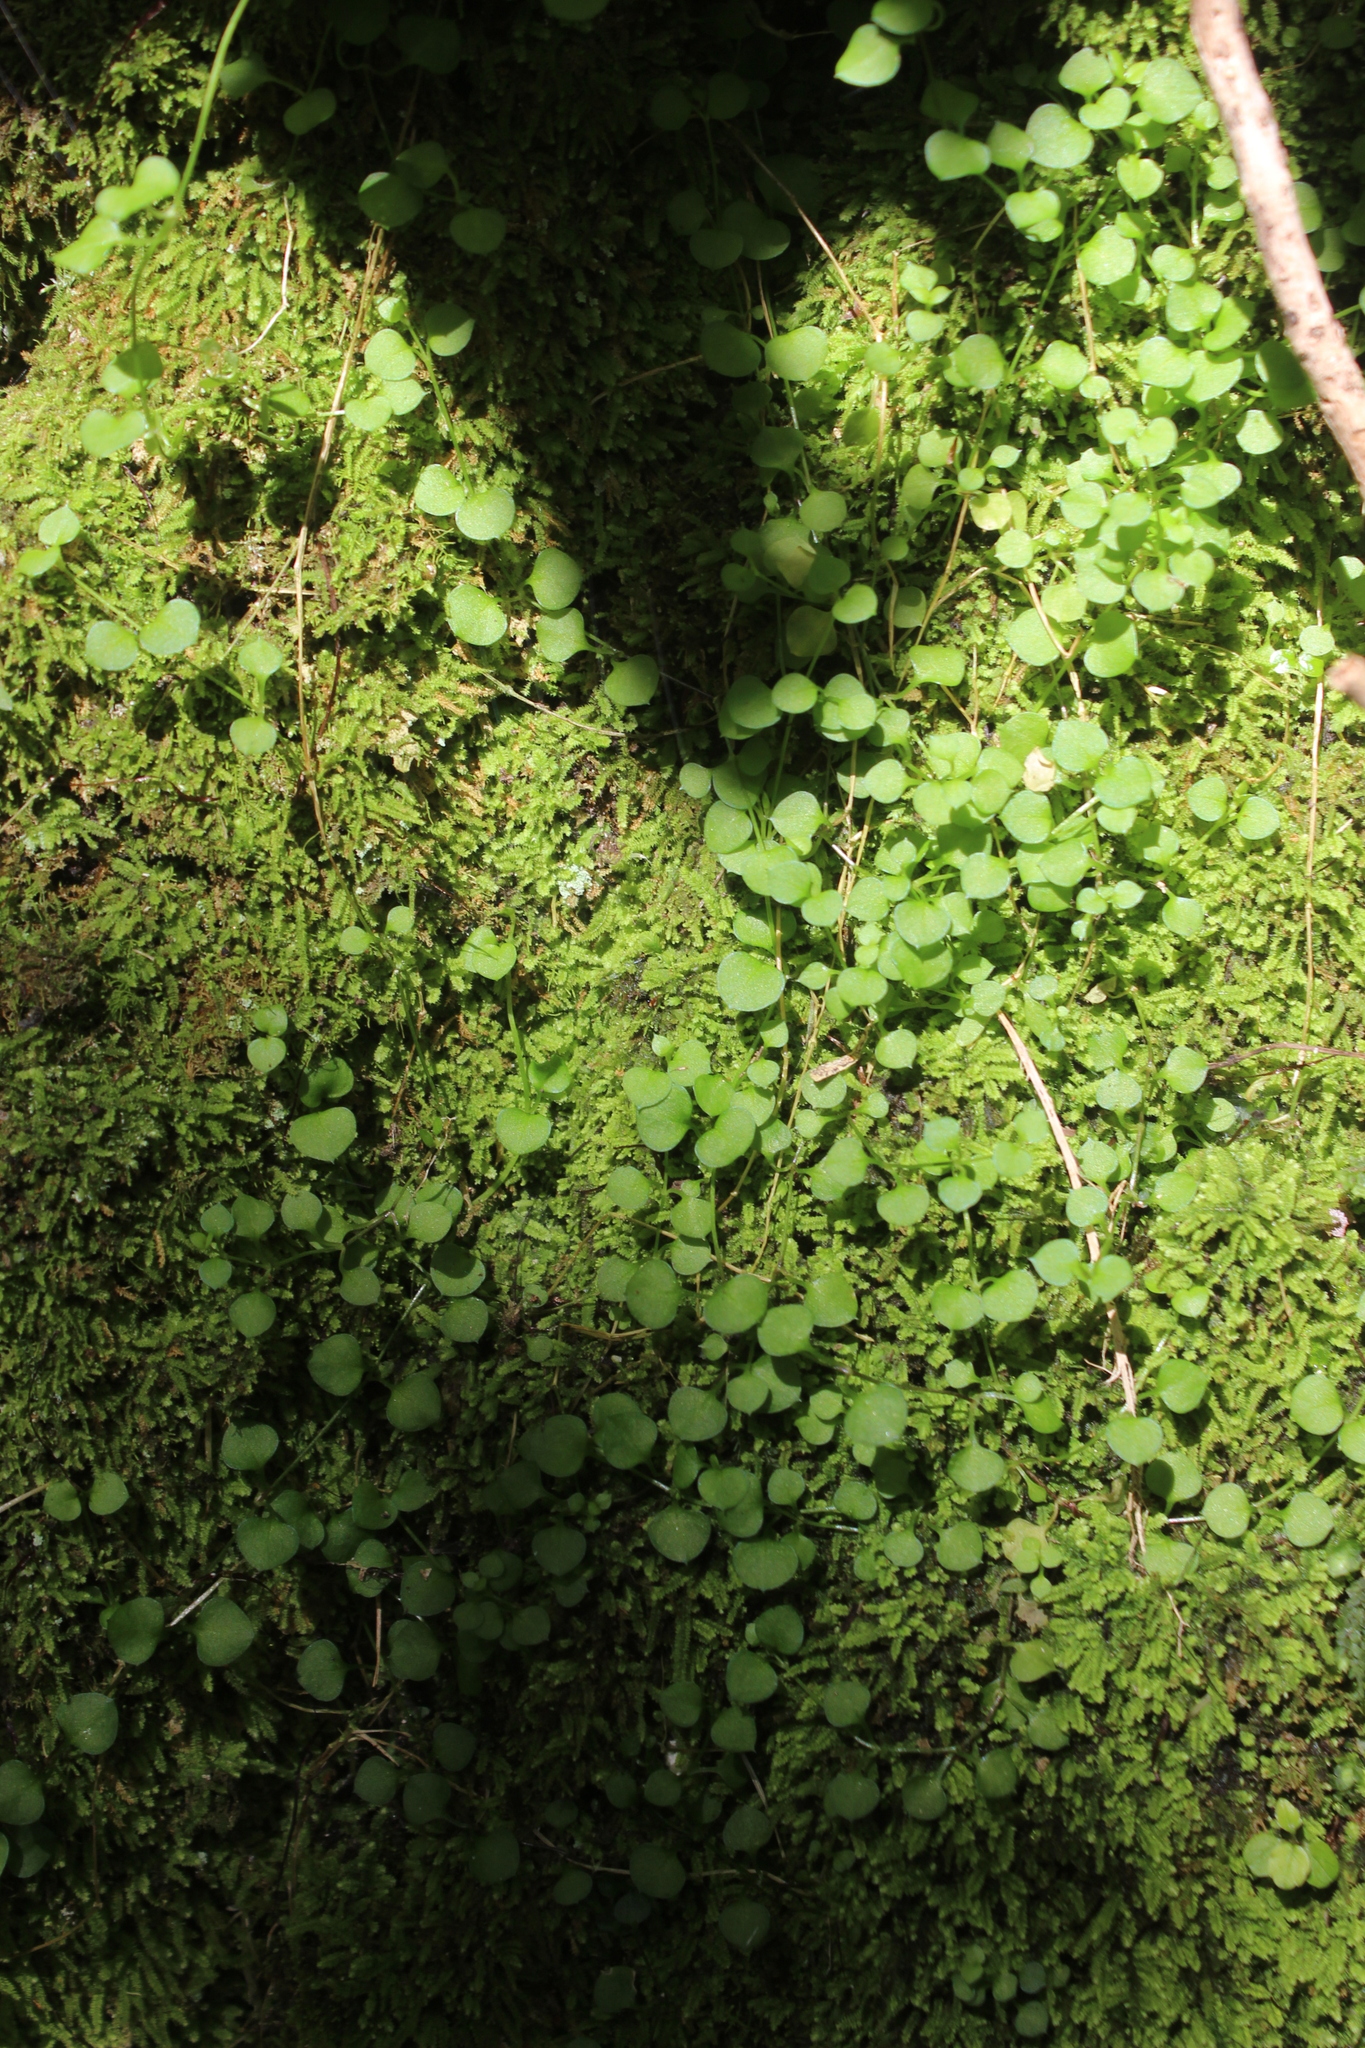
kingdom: Plantae
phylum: Tracheophyta
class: Magnoliopsida
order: Caryophyllales
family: Caryophyllaceae
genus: Stellaria
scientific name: Stellaria parviflora
